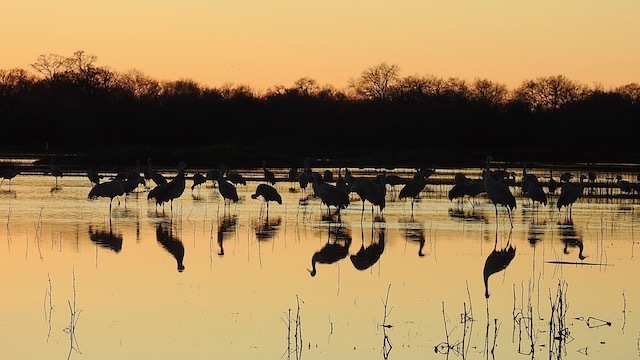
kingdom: Animalia
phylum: Chordata
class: Aves
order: Gruiformes
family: Gruidae
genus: Grus
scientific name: Grus canadensis
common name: Sandhill crane
